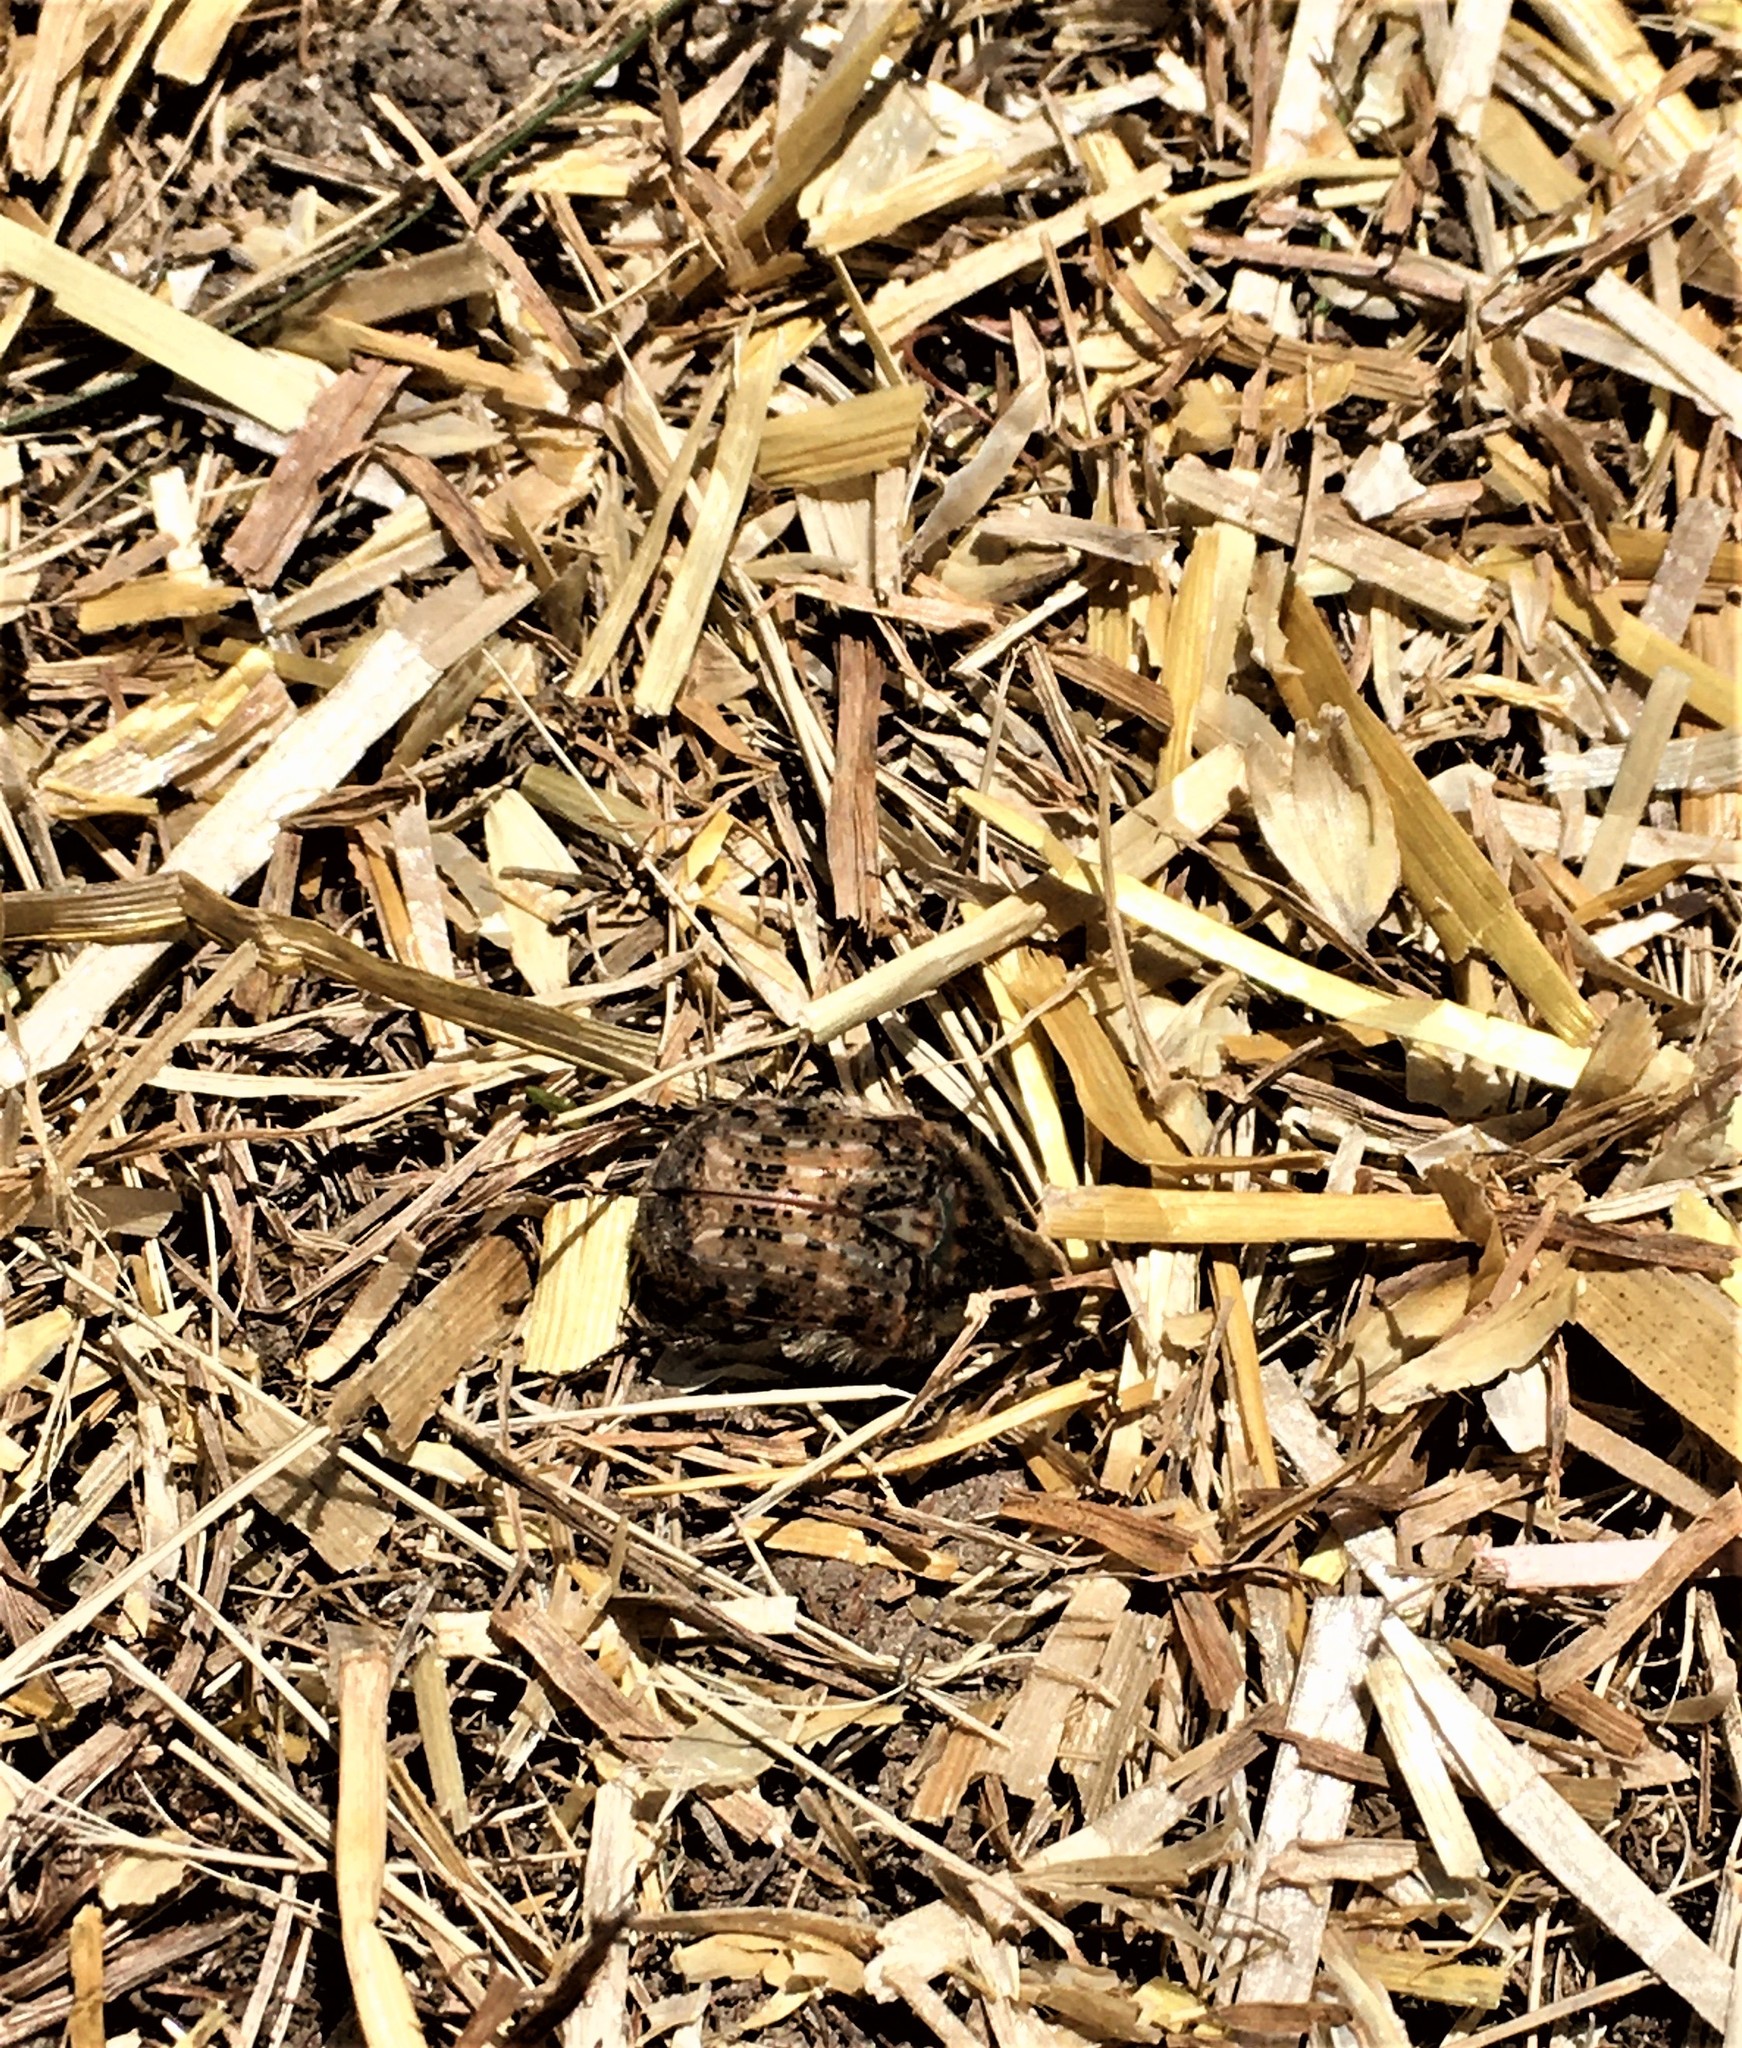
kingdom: Animalia
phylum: Arthropoda
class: Insecta
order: Coleoptera
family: Scarabaeidae
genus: Euphoria
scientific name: Euphoria inda
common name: Bumble flower beetle
